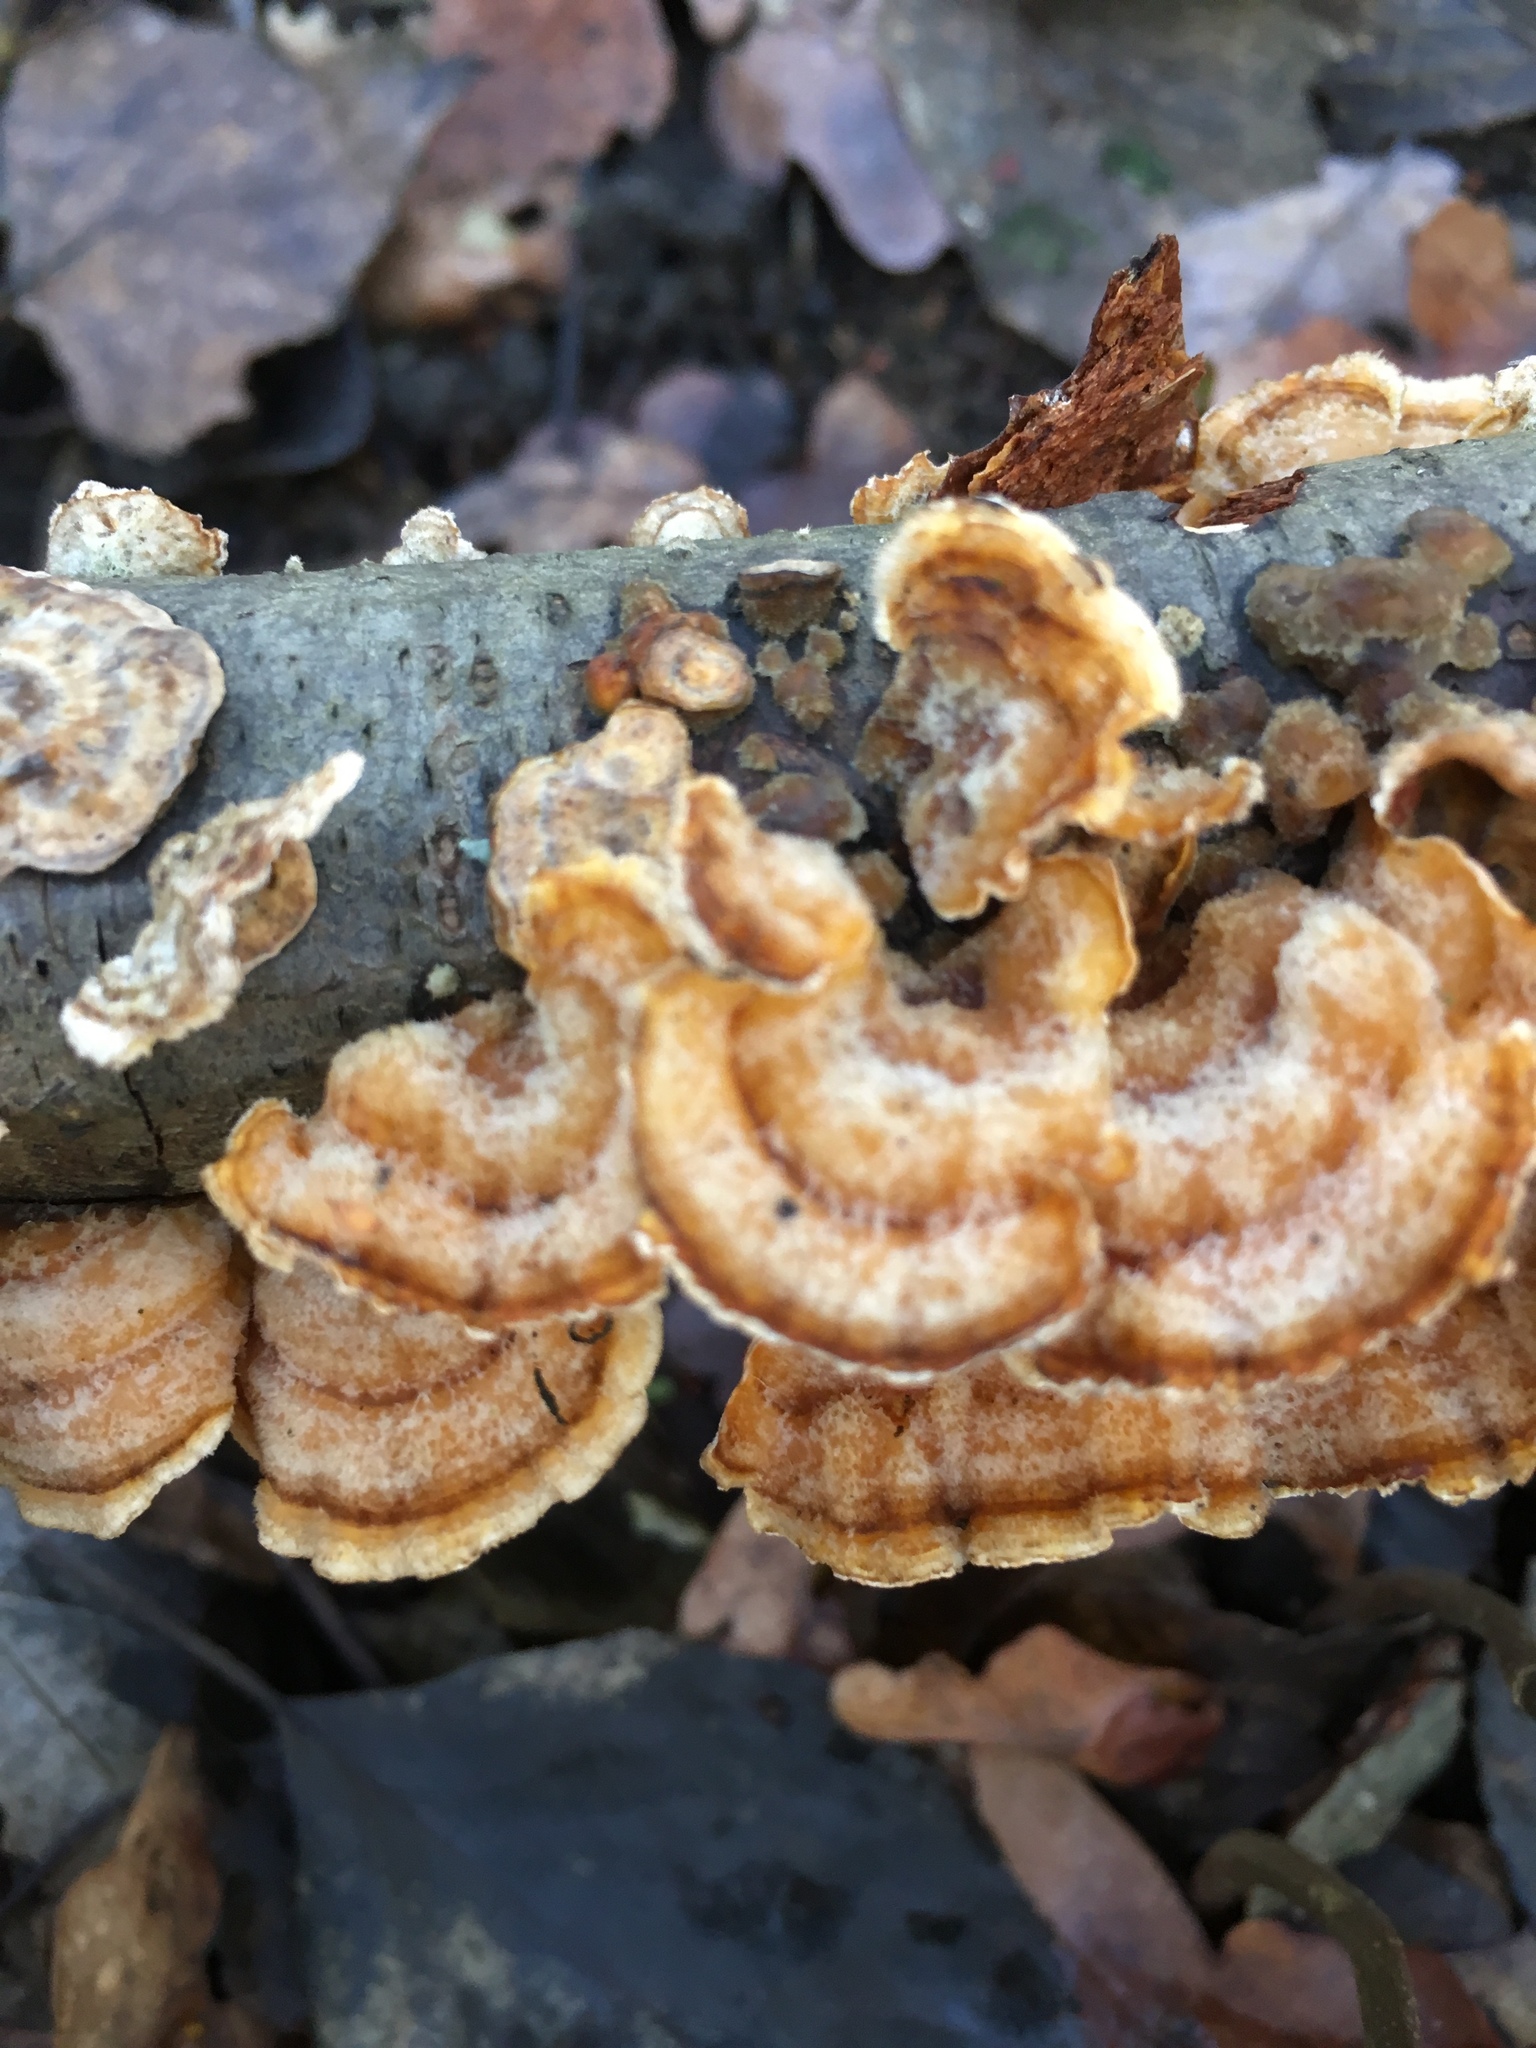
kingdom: Fungi
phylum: Basidiomycota
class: Agaricomycetes
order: Russulales
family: Stereaceae
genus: Stereum
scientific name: Stereum hirsutum
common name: Hairy curtain crust
